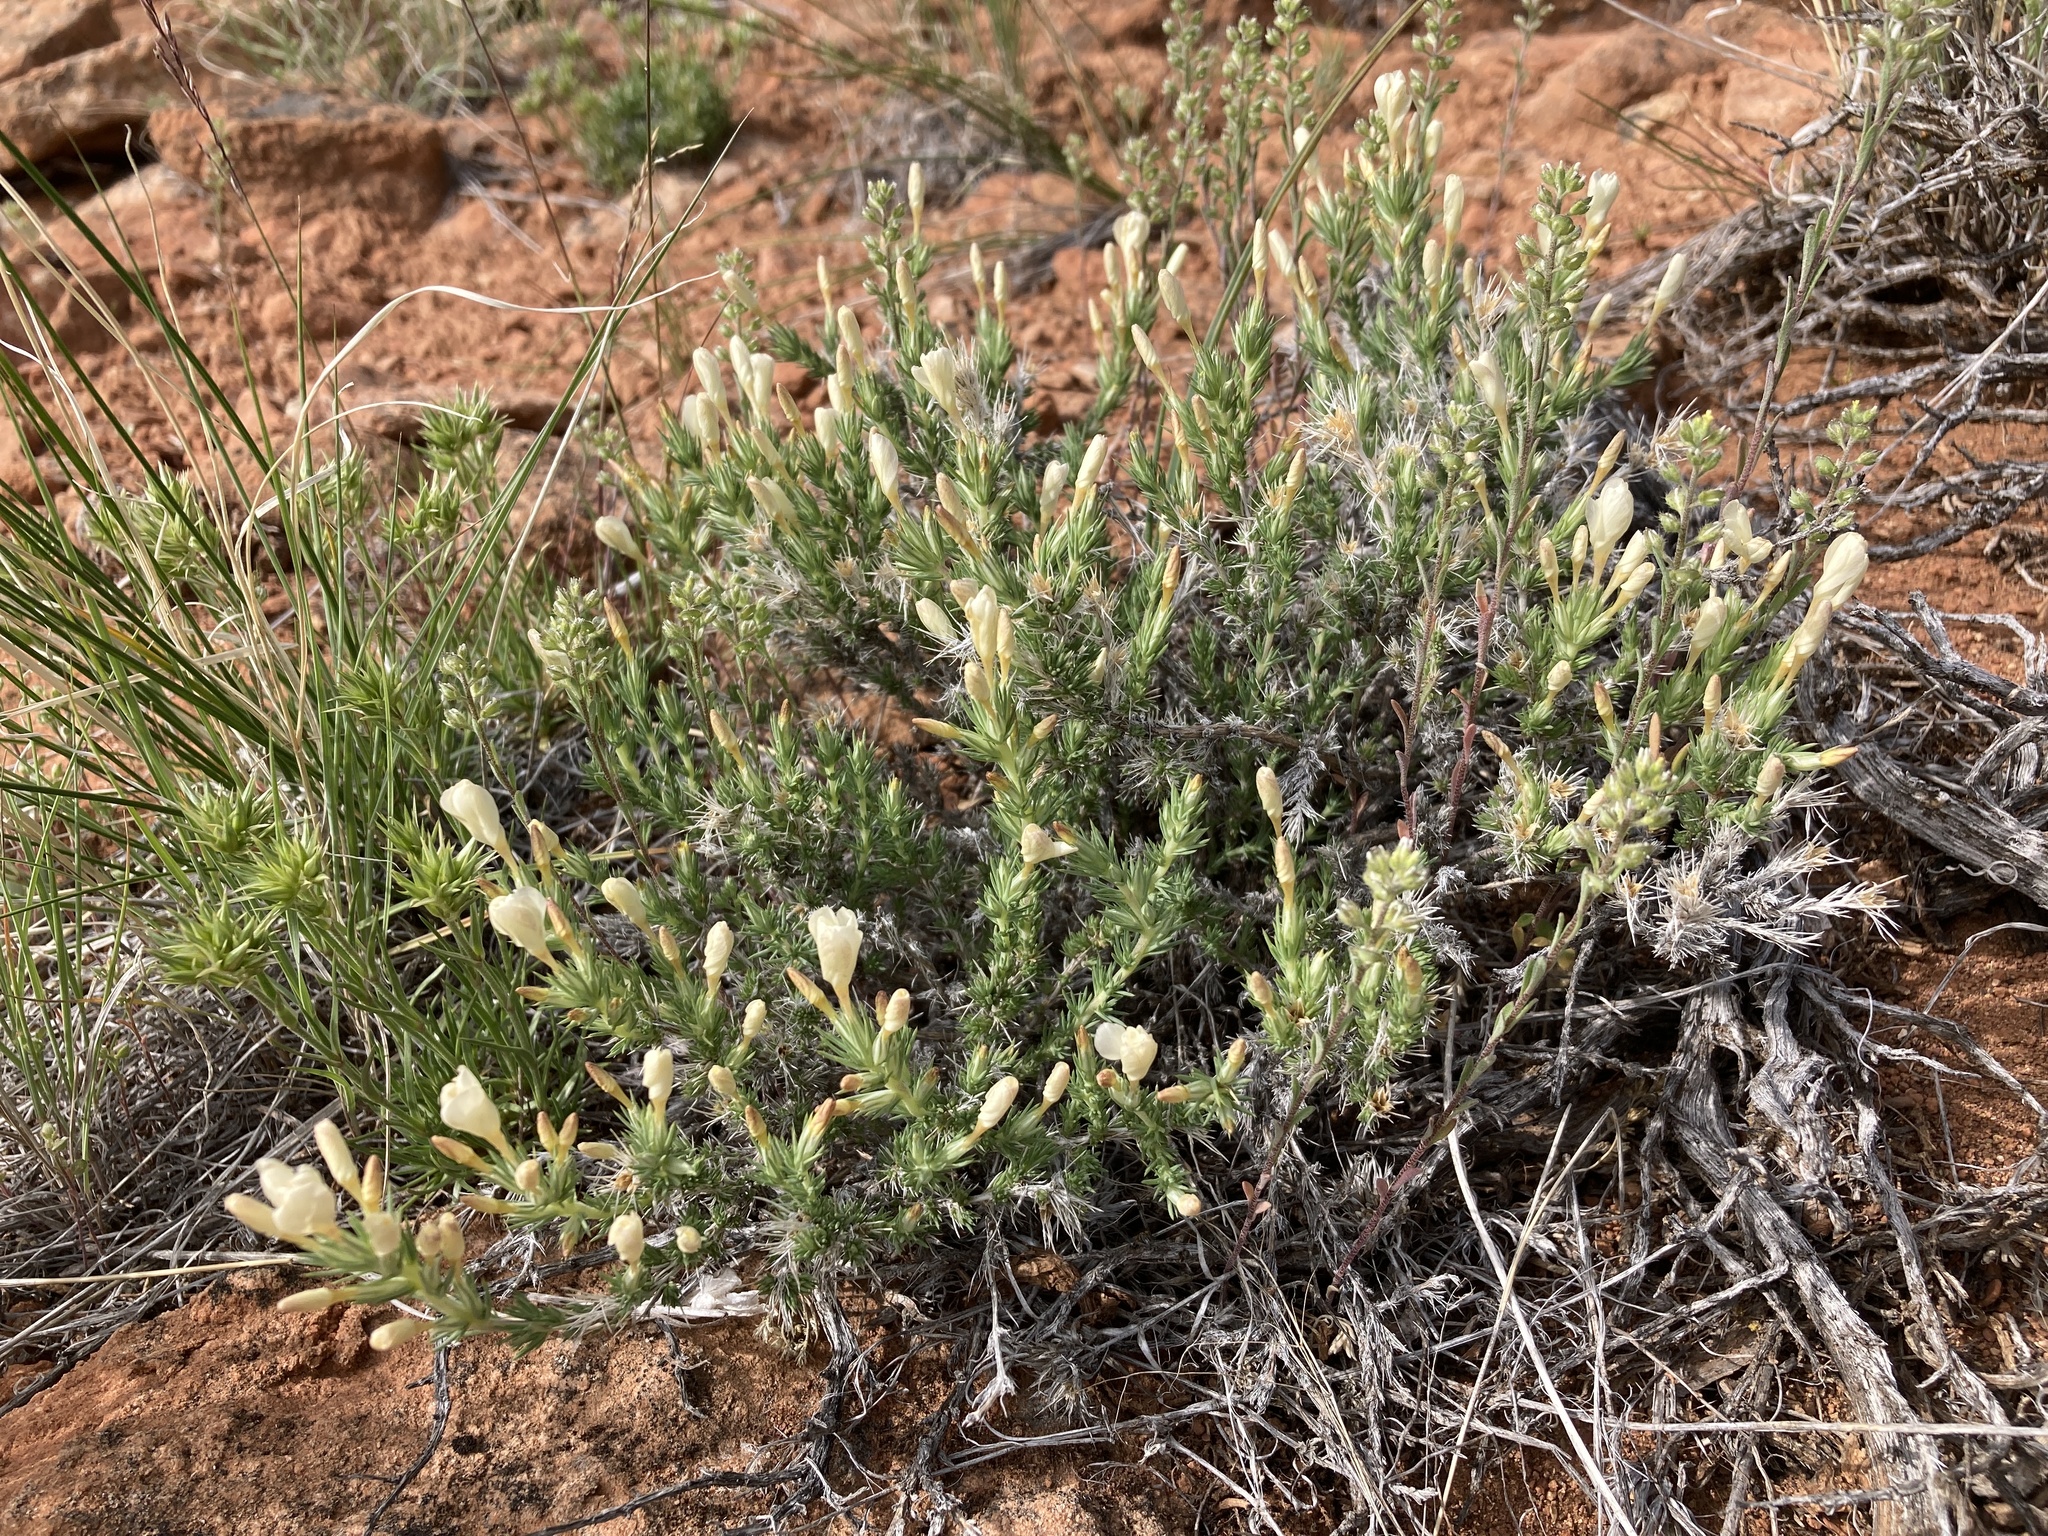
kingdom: Plantae
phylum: Tracheophyta
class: Magnoliopsida
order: Ericales
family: Polemoniaceae
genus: Linanthus
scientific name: Linanthus pungens
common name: Granite prickly phlox
